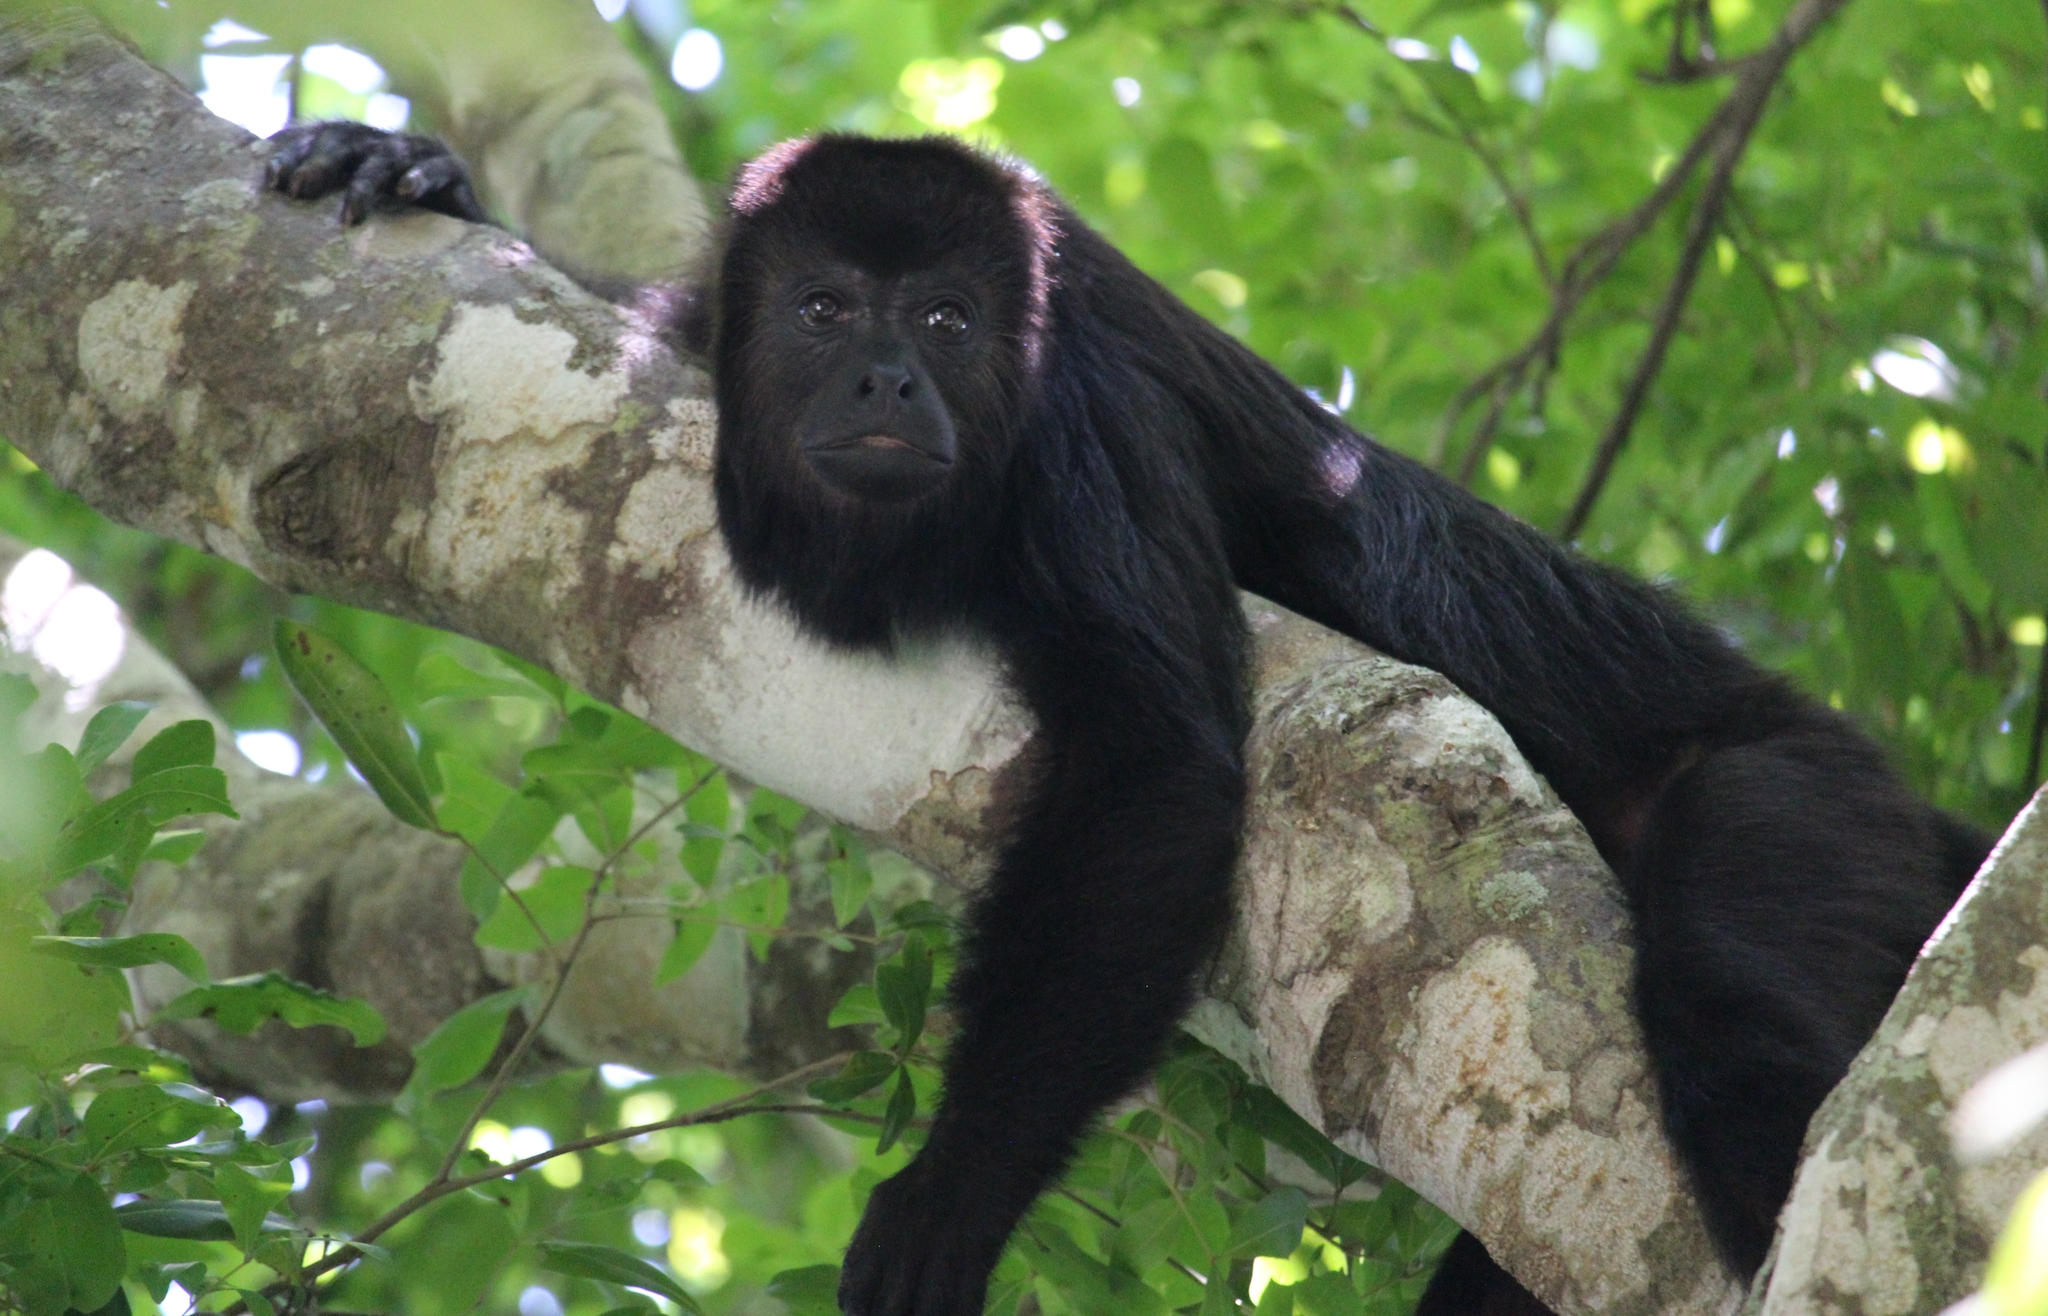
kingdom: Animalia
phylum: Chordata
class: Mammalia
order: Primates
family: Atelidae
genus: Alouatta
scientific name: Alouatta pigra
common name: Guatemalan black howler
